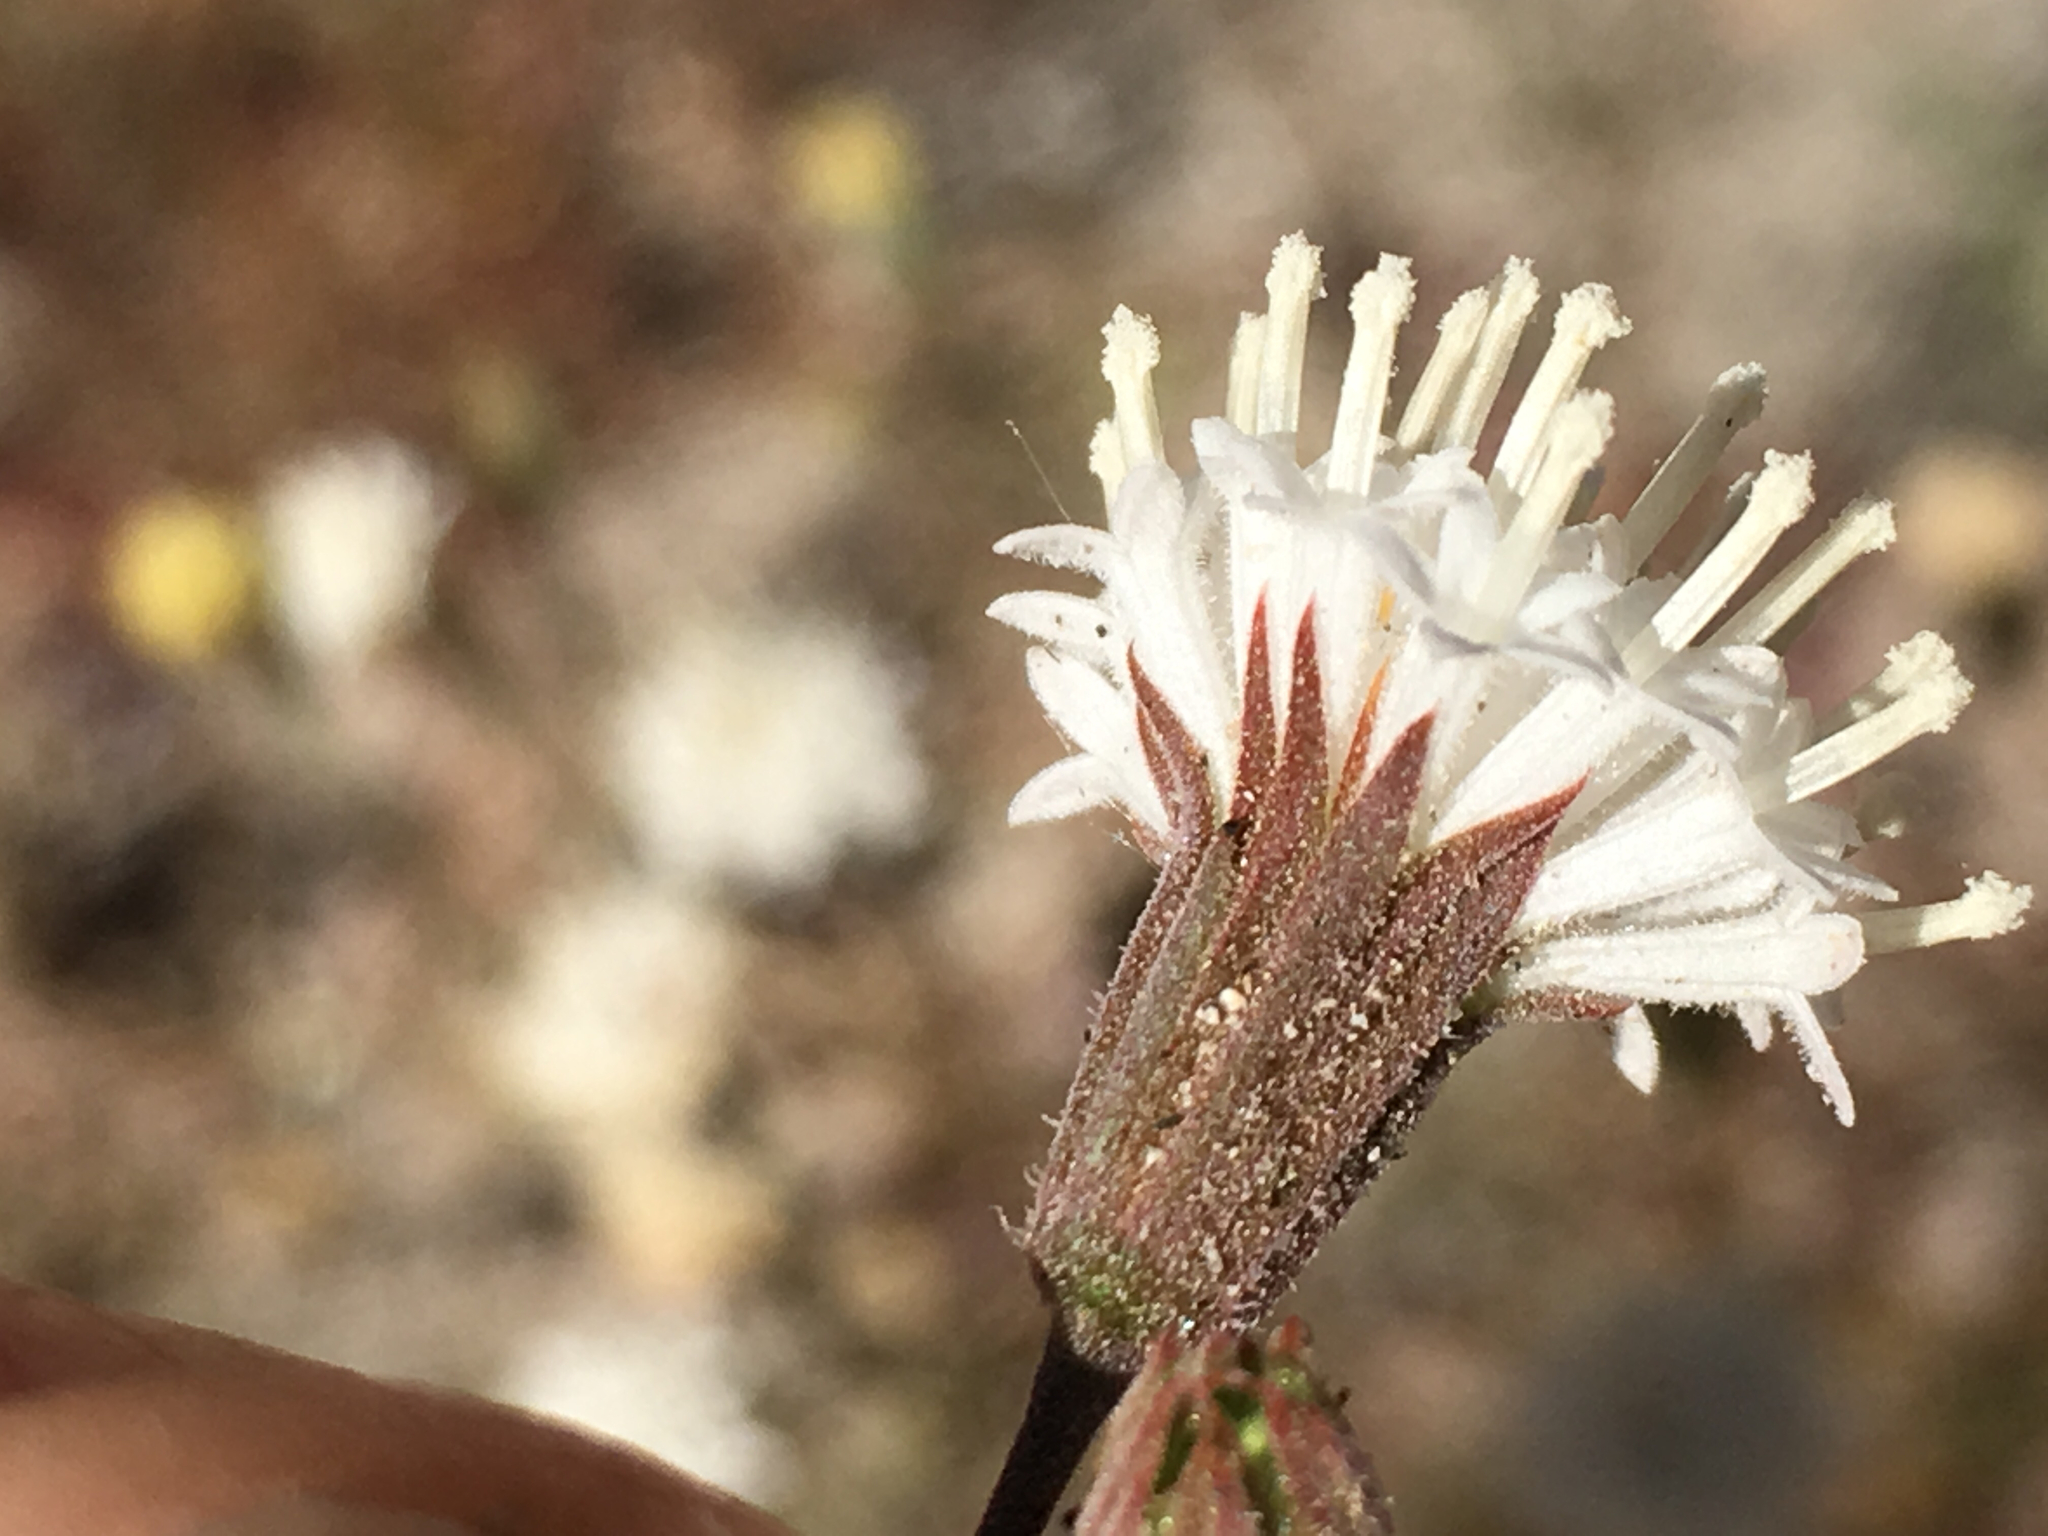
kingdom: Plantae
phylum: Tracheophyta
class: Magnoliopsida
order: Asterales
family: Asteraceae
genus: Chaenactis
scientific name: Chaenactis carphoclinia
